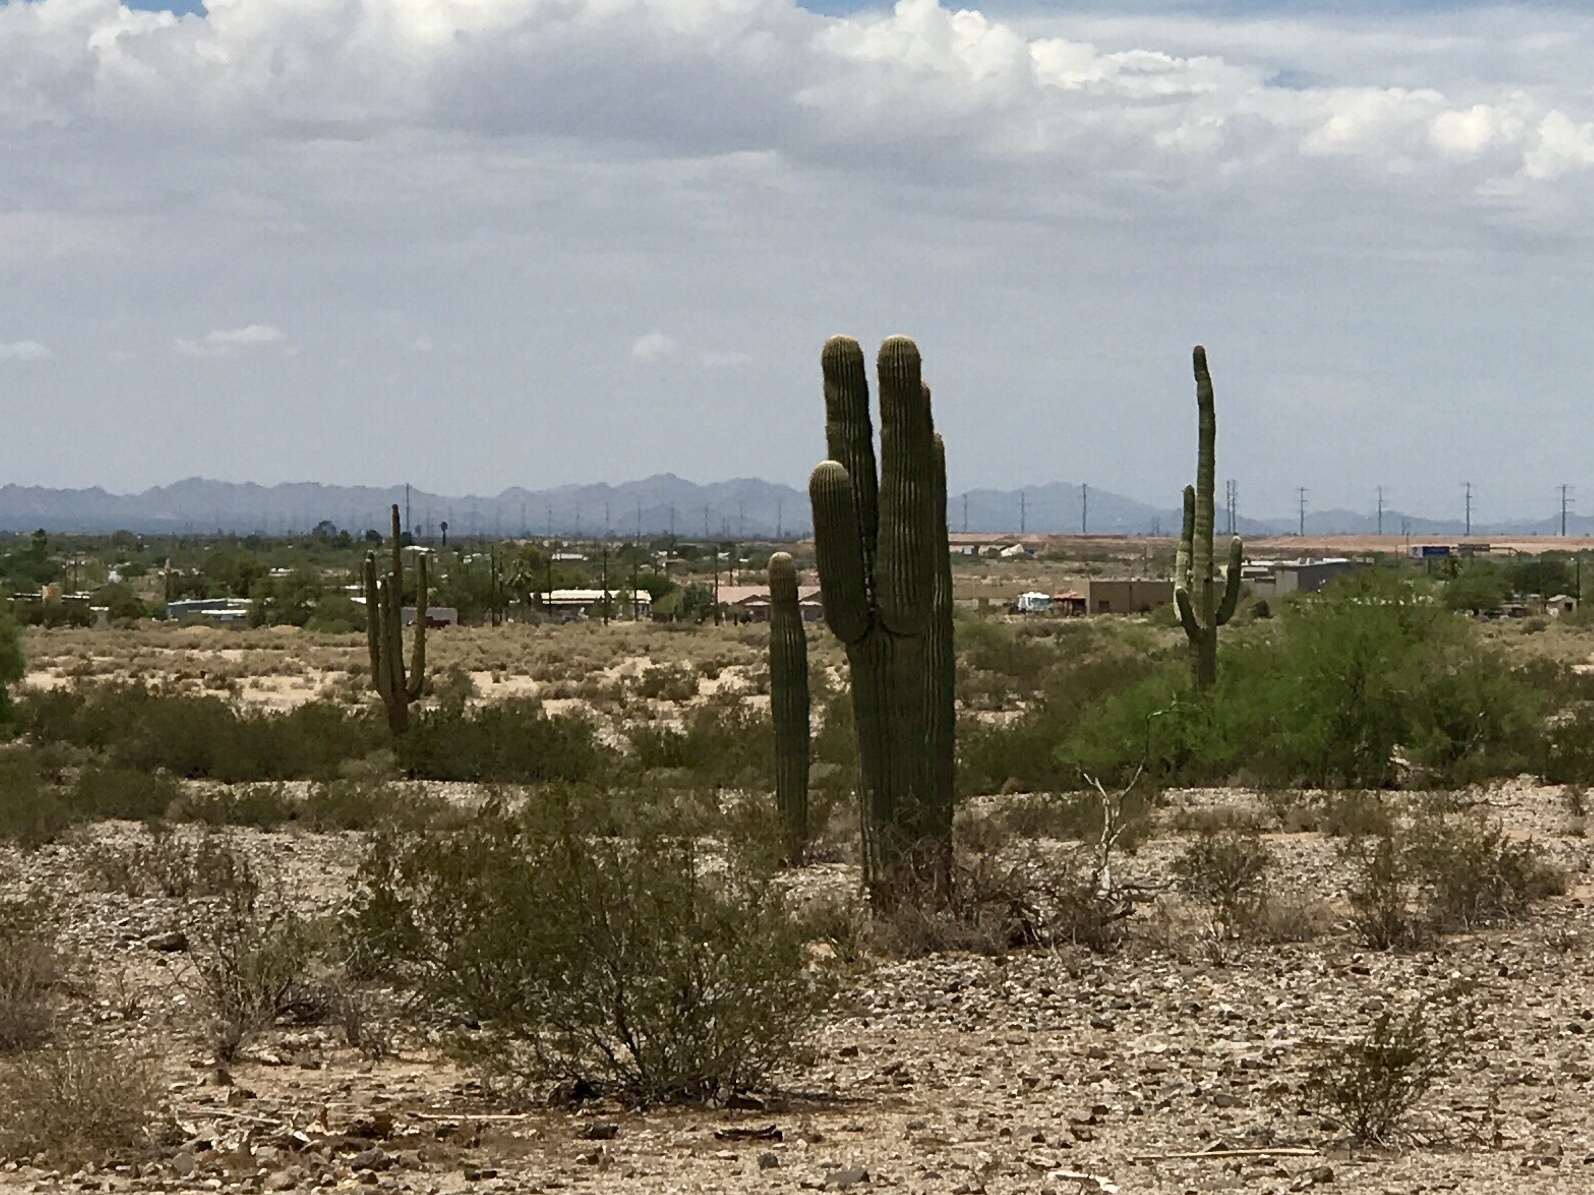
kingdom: Plantae
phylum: Tracheophyta
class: Magnoliopsida
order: Caryophyllales
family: Cactaceae
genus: Carnegiea
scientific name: Carnegiea gigantea
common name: Saguaro
